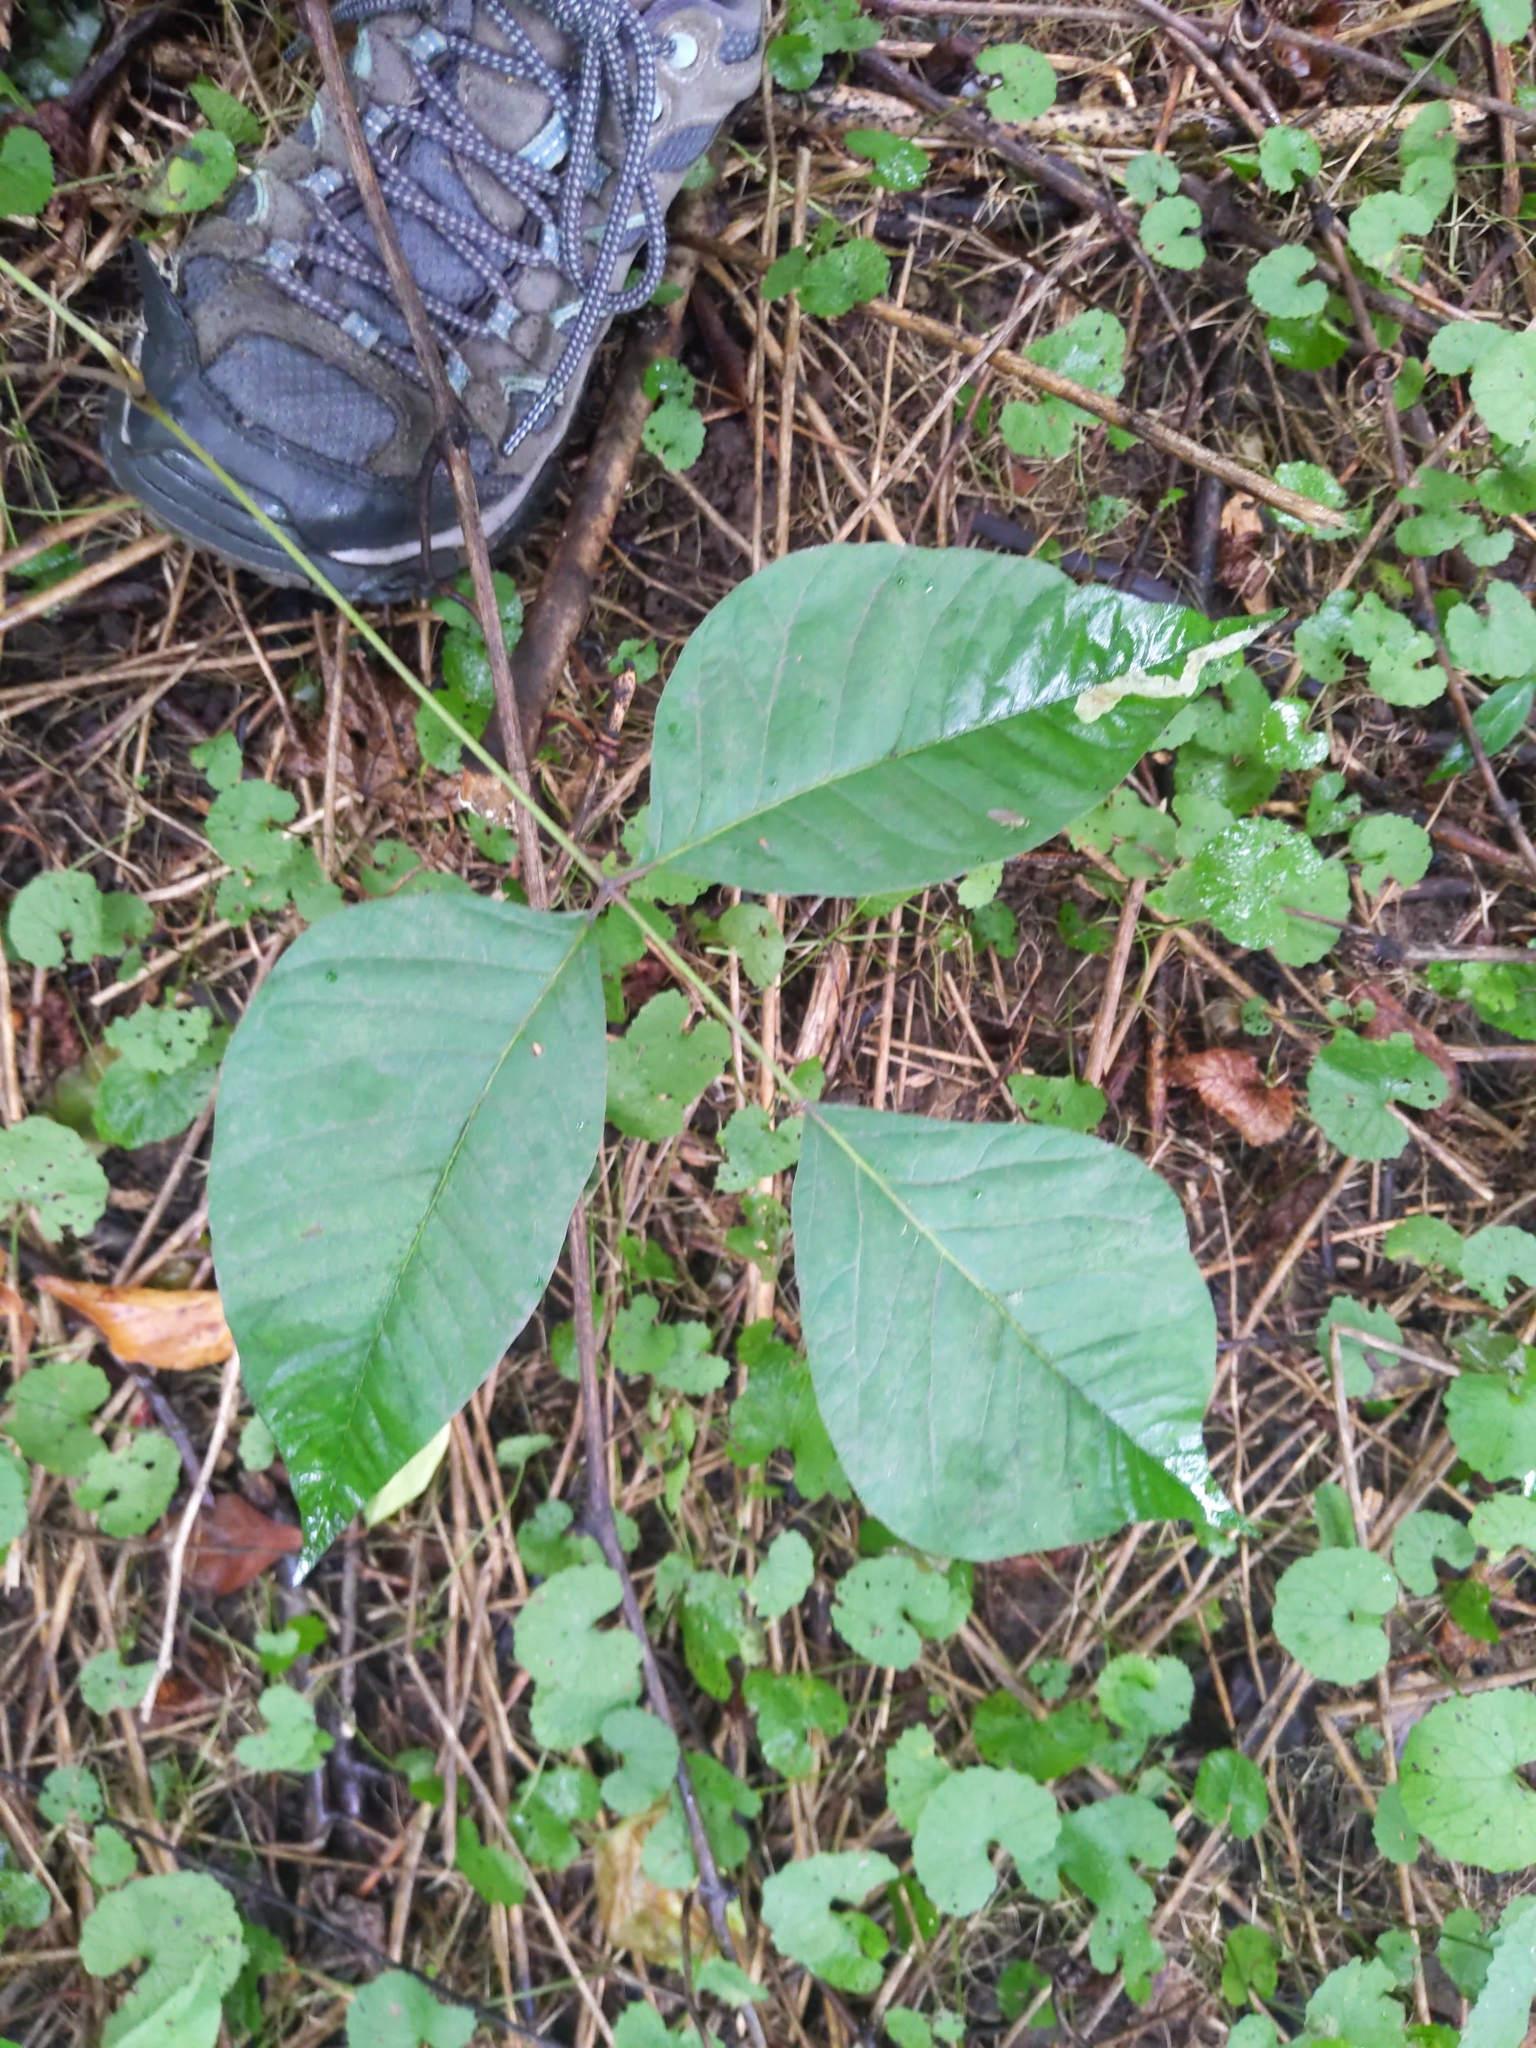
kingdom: Plantae
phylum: Tracheophyta
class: Magnoliopsida
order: Sapindales
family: Anacardiaceae
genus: Toxicodendron
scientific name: Toxicodendron radicans
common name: Poison ivy
